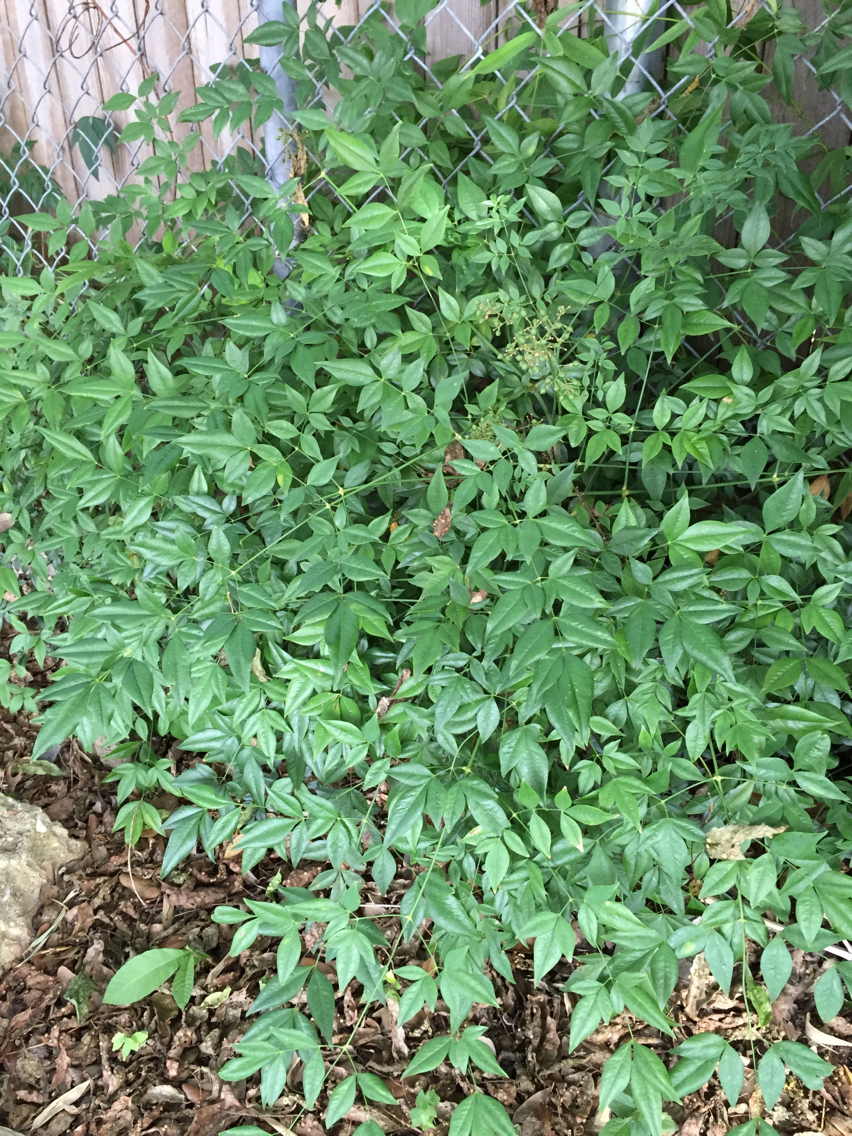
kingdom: Plantae
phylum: Tracheophyta
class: Magnoliopsida
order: Ranunculales
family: Berberidaceae
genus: Nandina
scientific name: Nandina domestica
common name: Sacred bamboo
